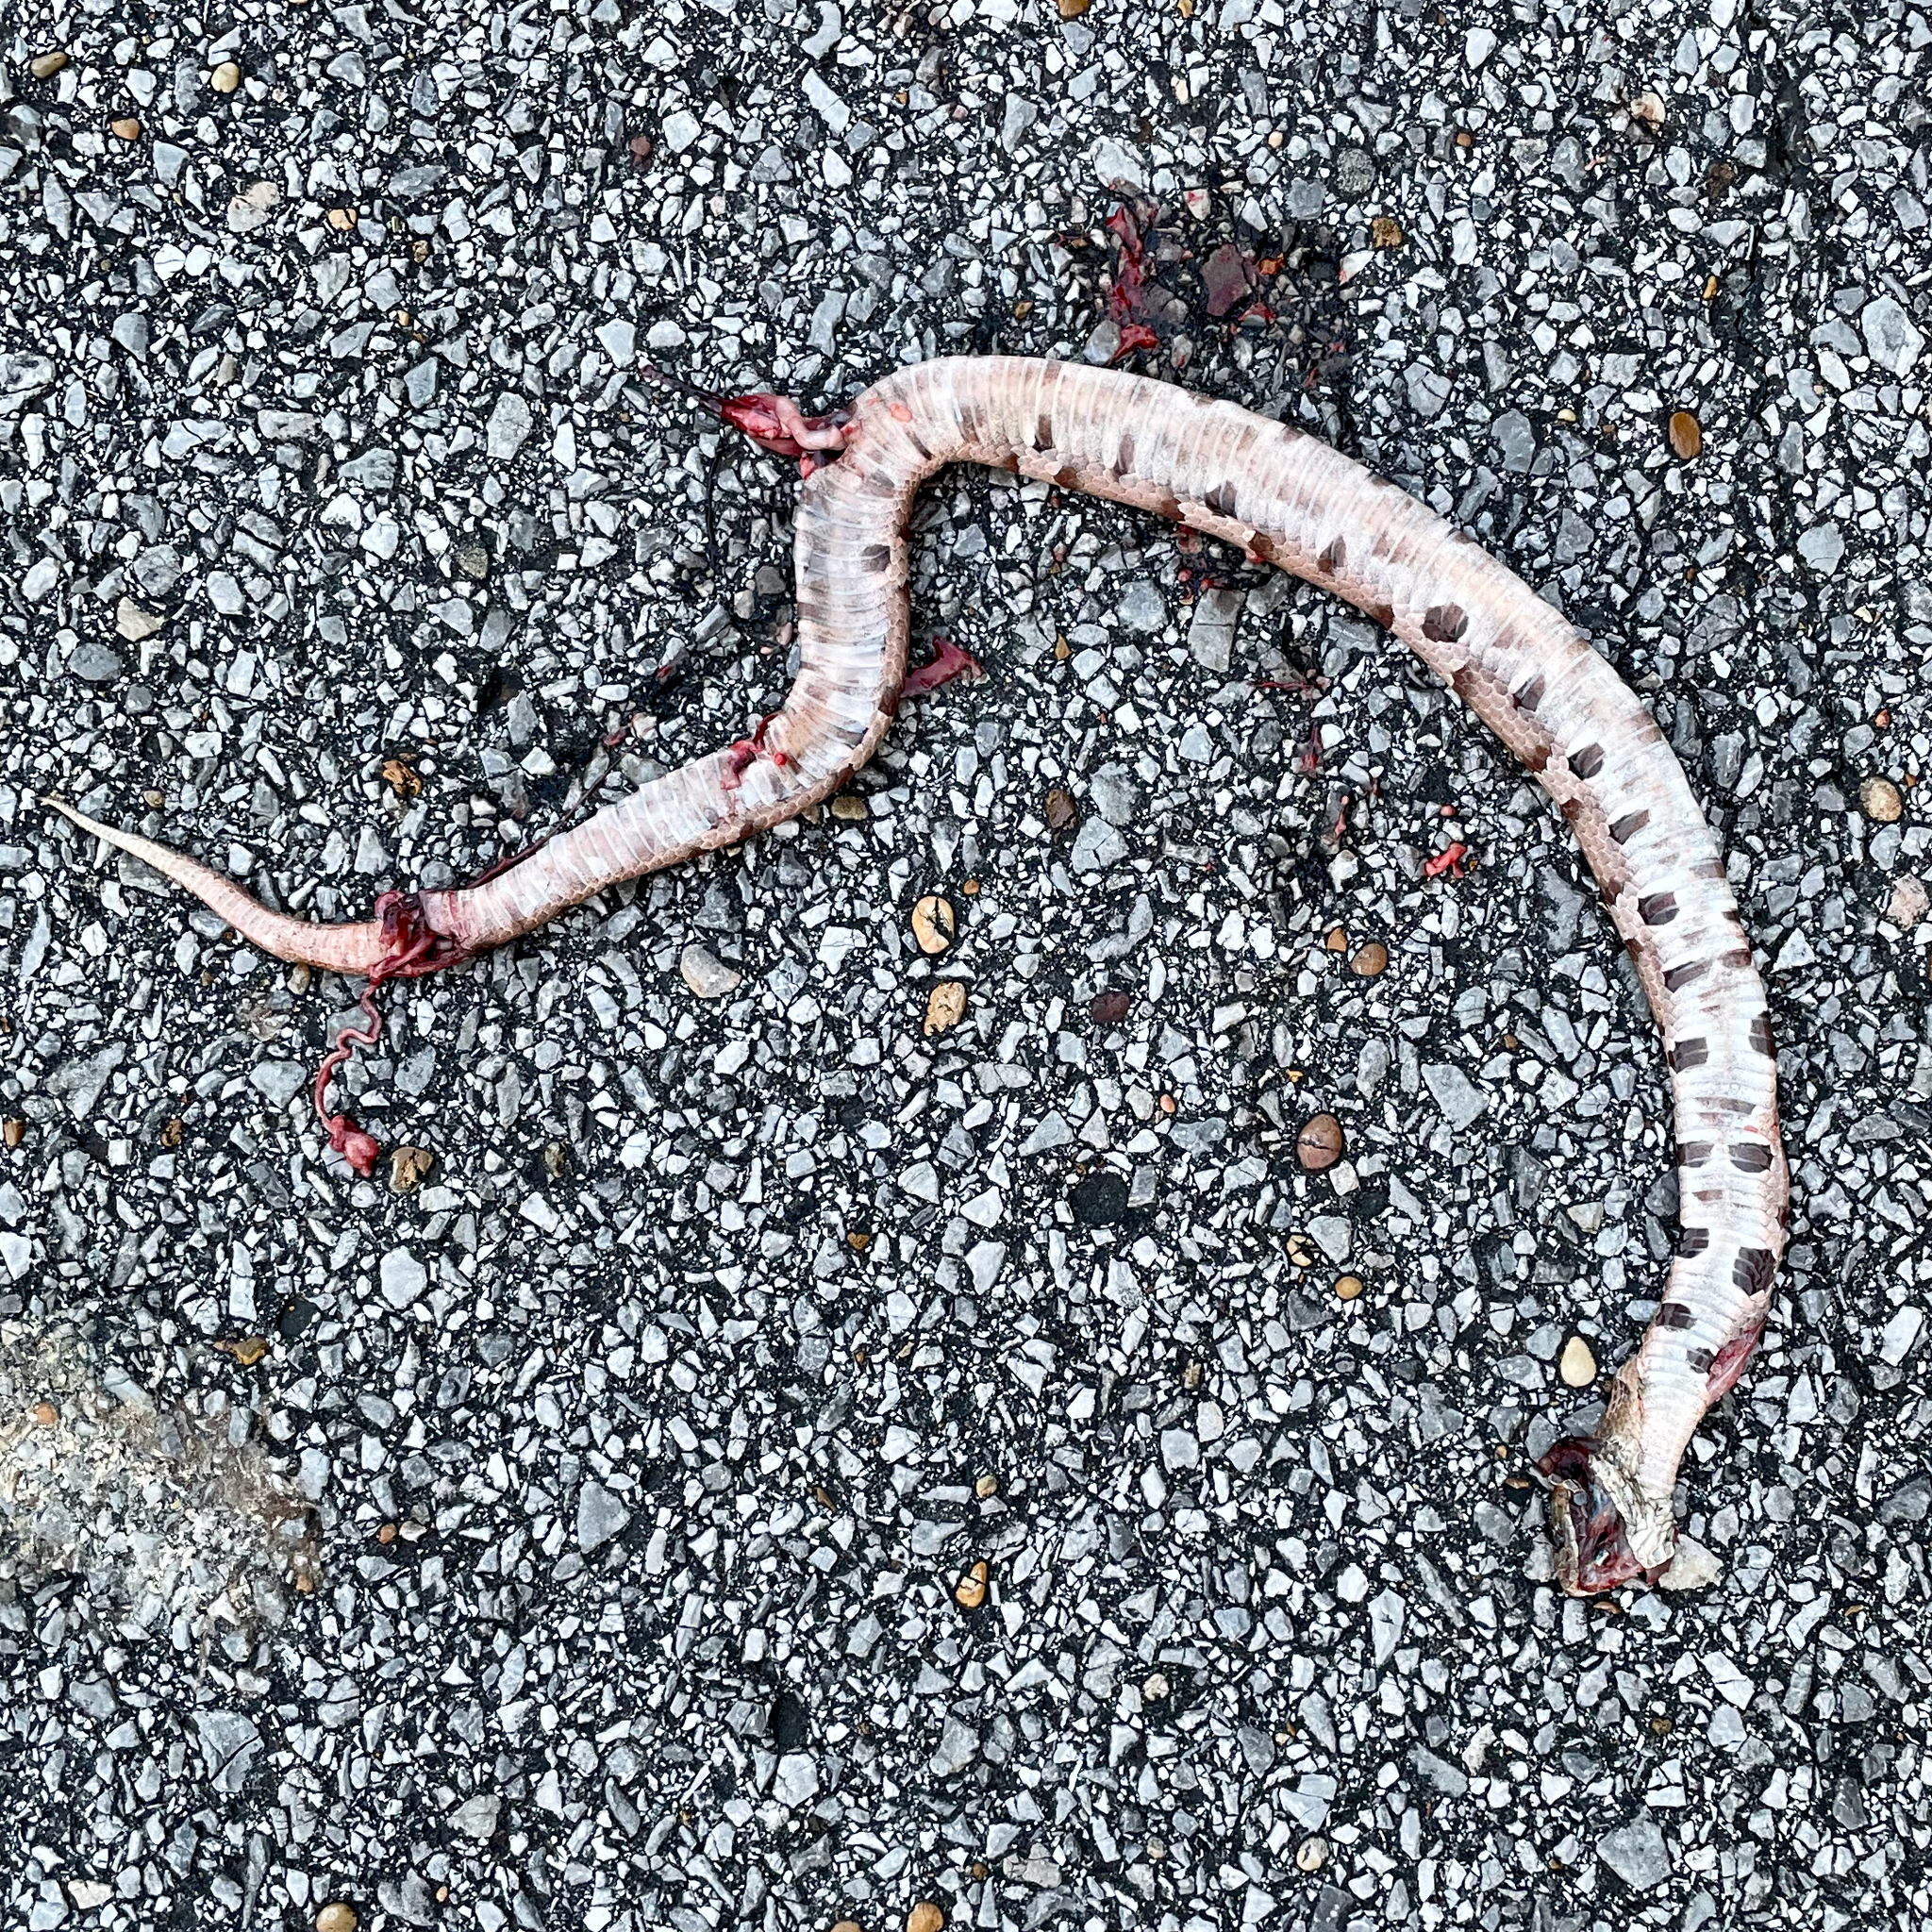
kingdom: Animalia
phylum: Chordata
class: Squamata
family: Viperidae
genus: Agkistrodon
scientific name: Agkistrodon contortrix
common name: Northern copperhead
